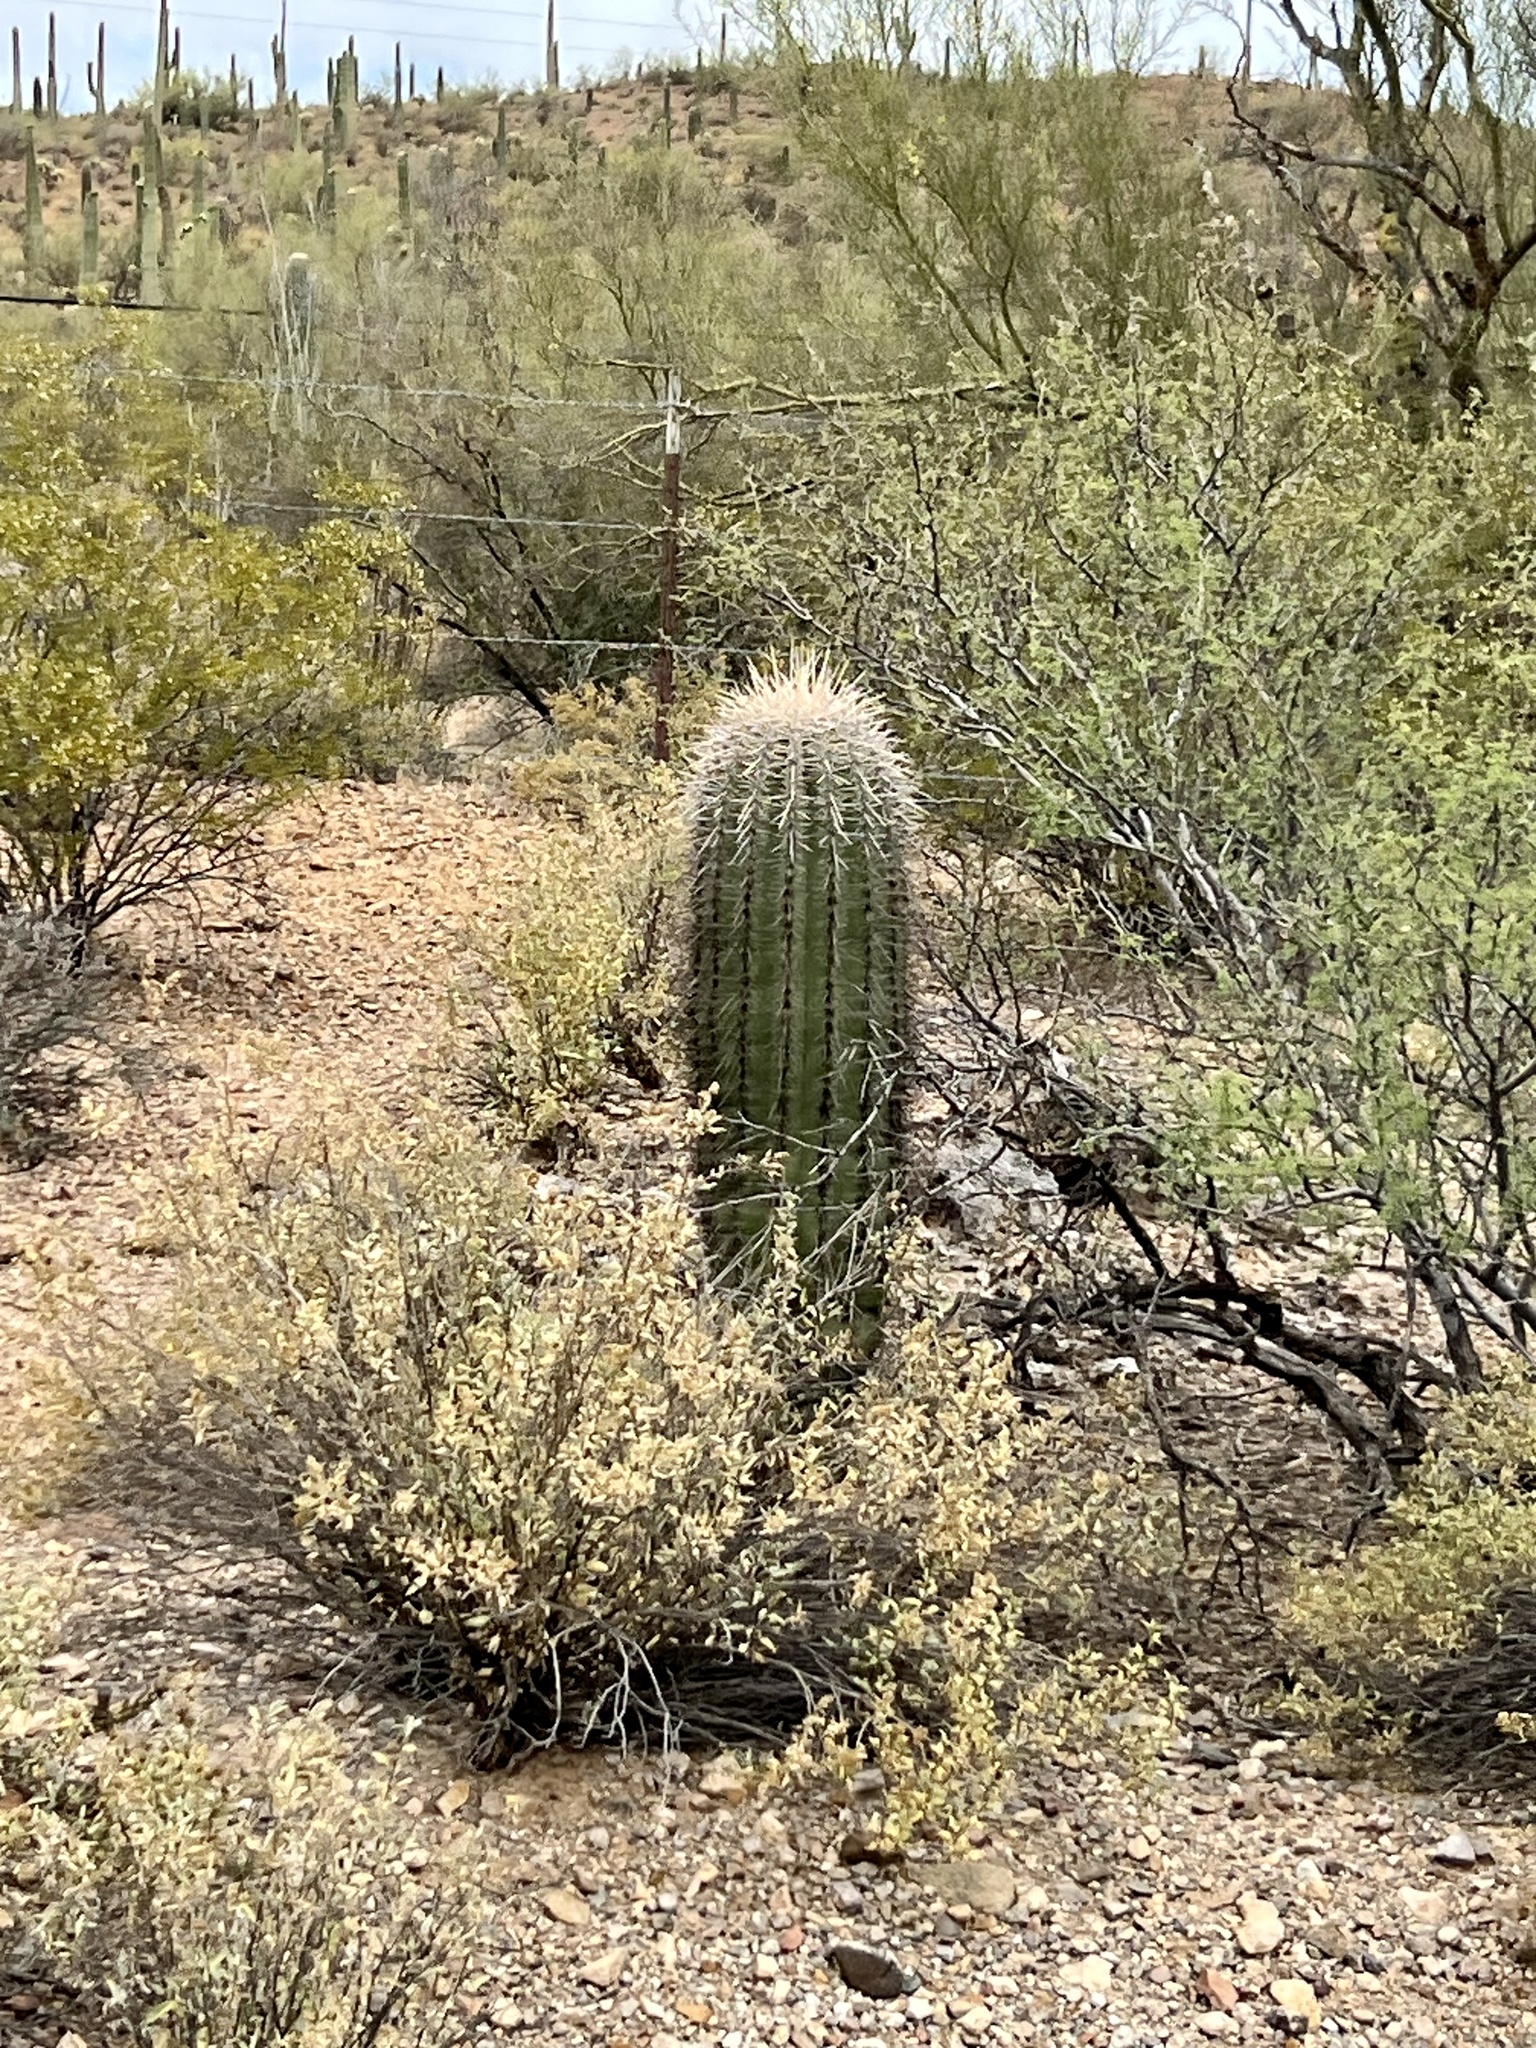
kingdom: Plantae
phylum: Tracheophyta
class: Magnoliopsida
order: Caryophyllales
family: Cactaceae
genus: Carnegiea
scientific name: Carnegiea gigantea
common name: Saguaro
